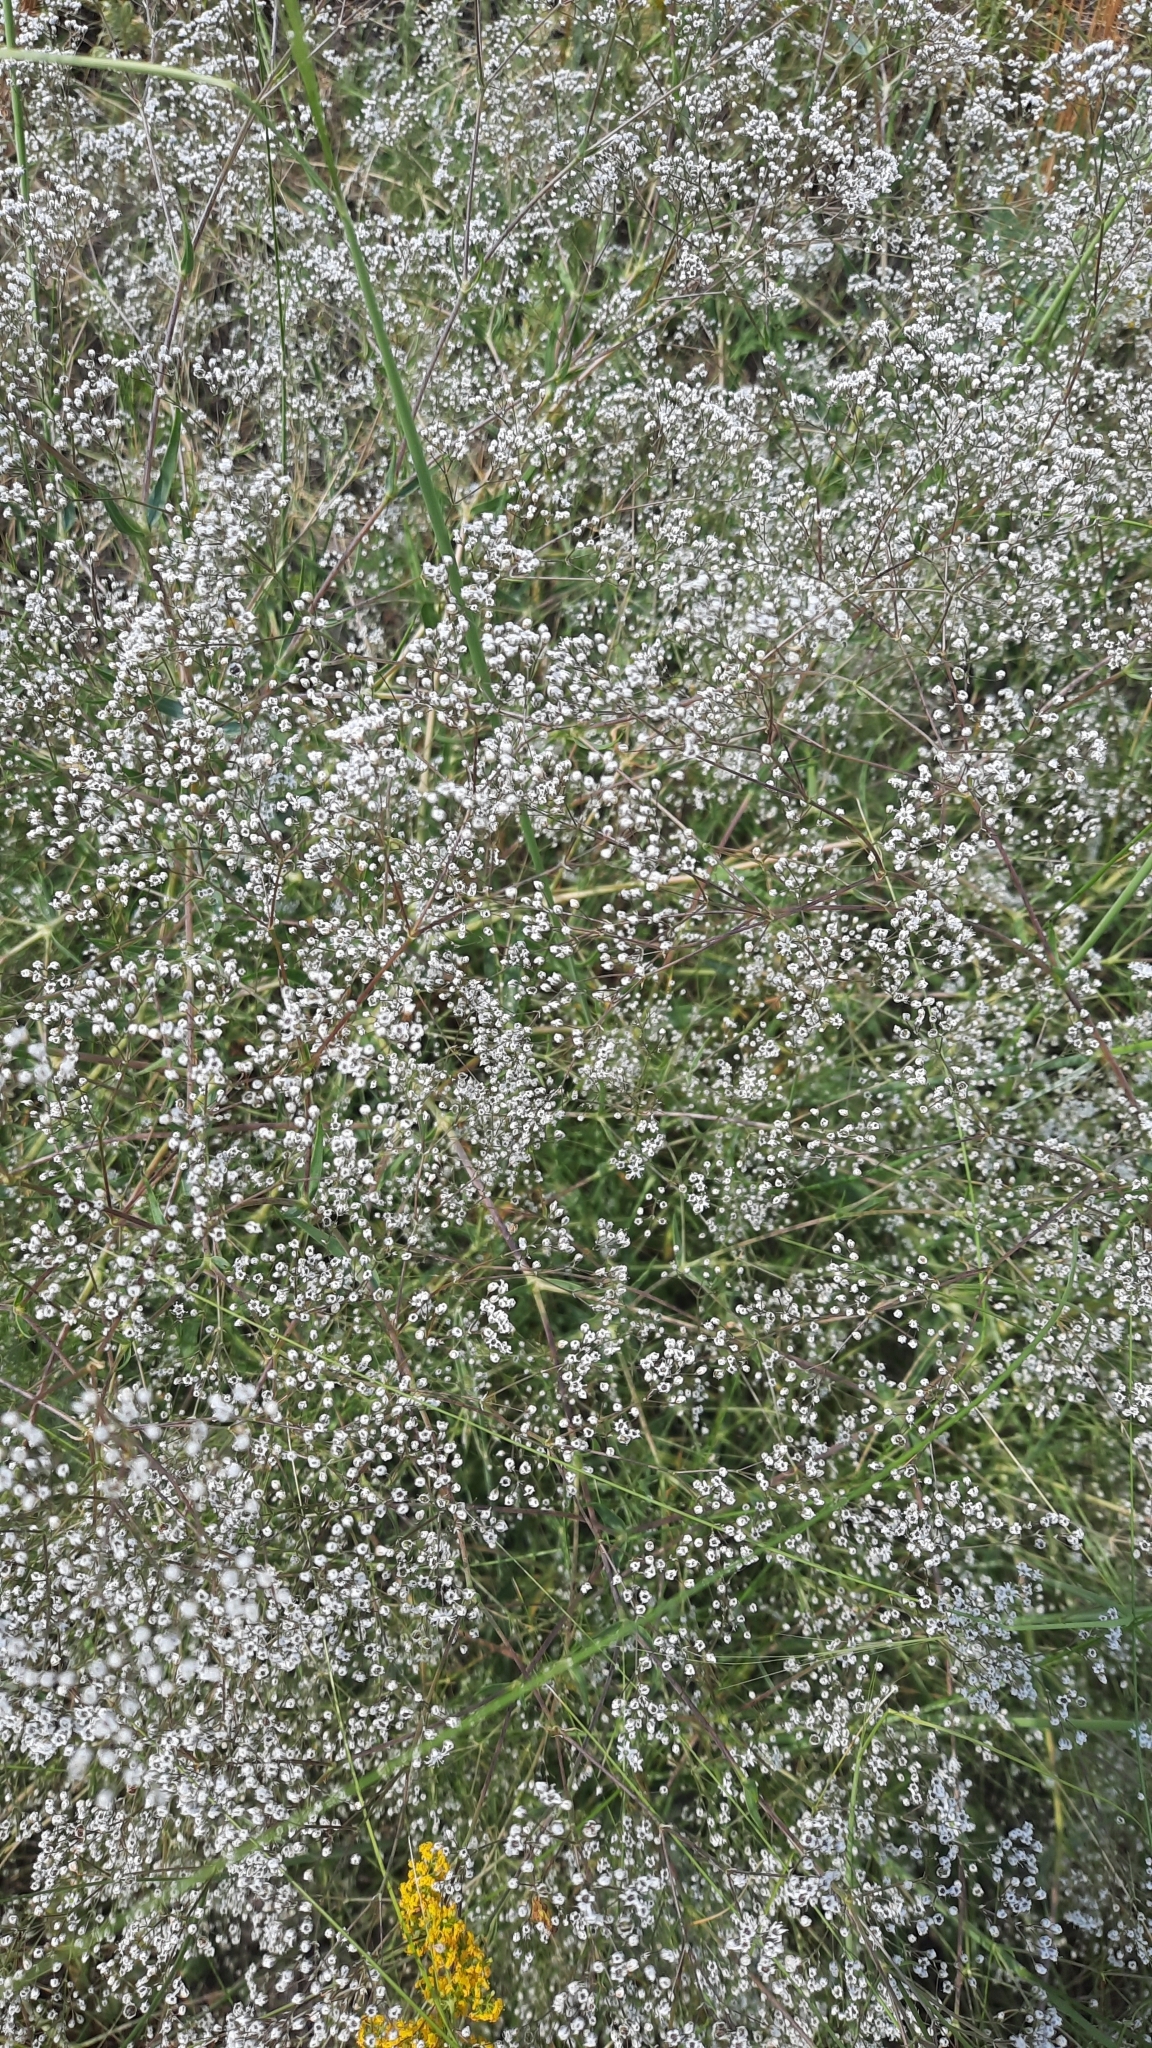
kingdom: Plantae
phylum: Tracheophyta
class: Magnoliopsida
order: Caryophyllales
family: Caryophyllaceae
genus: Gypsophila
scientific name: Gypsophila paniculata
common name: Baby's-breath
